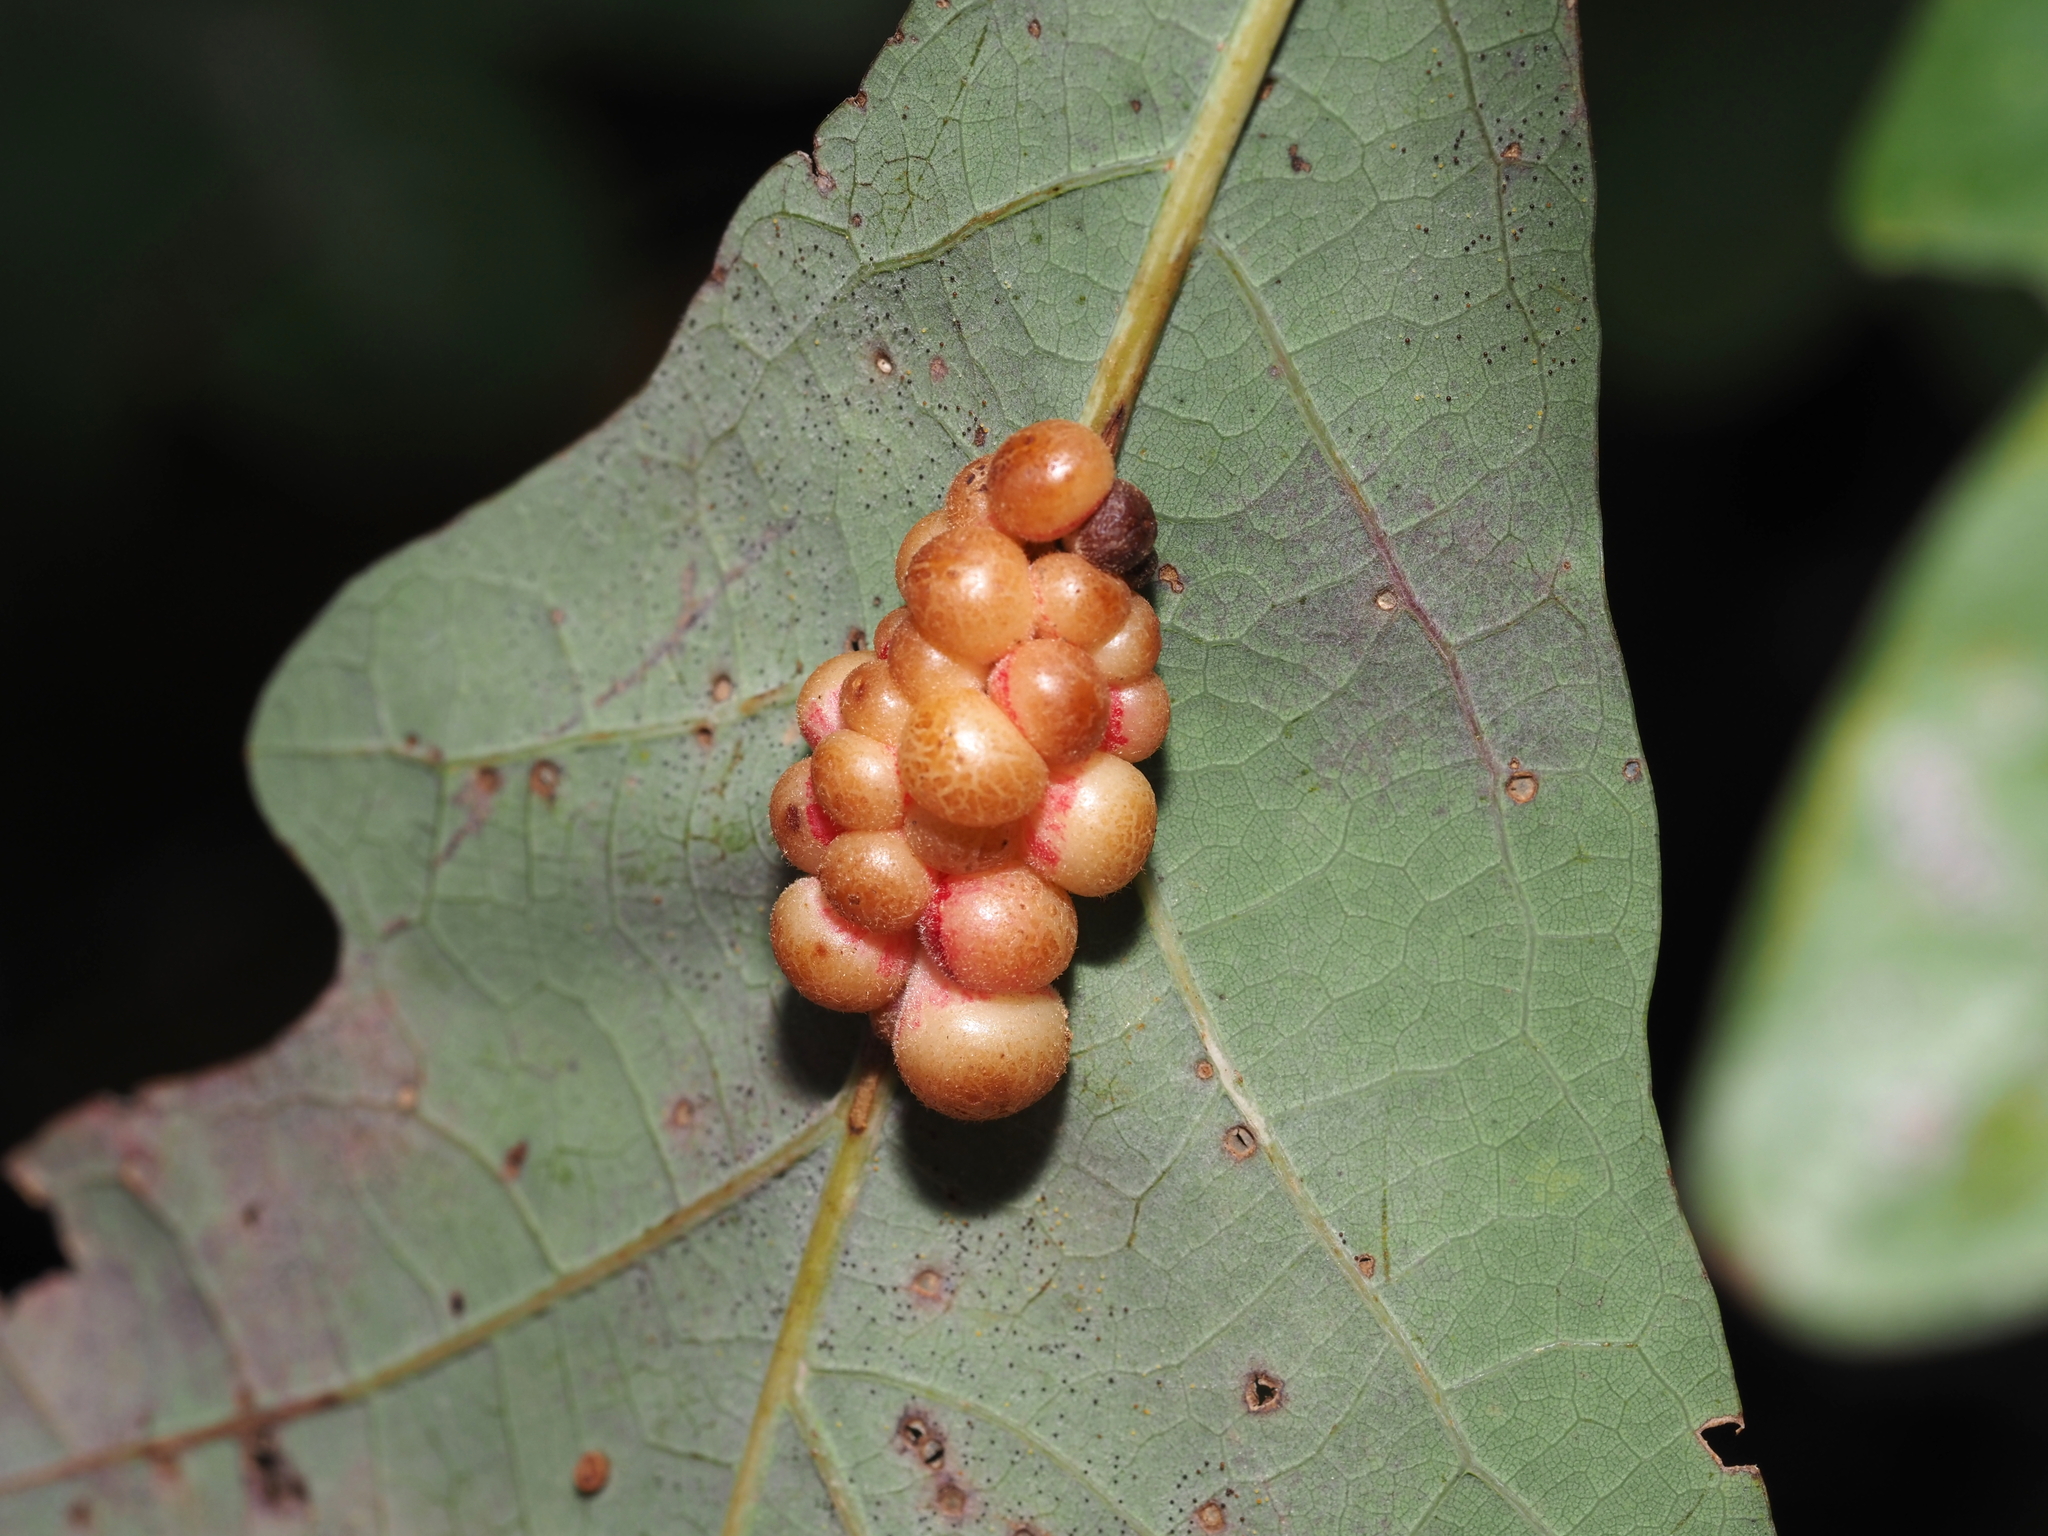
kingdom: Animalia
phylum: Arthropoda
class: Insecta
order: Hymenoptera
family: Cynipidae
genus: Andricus
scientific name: Andricus
